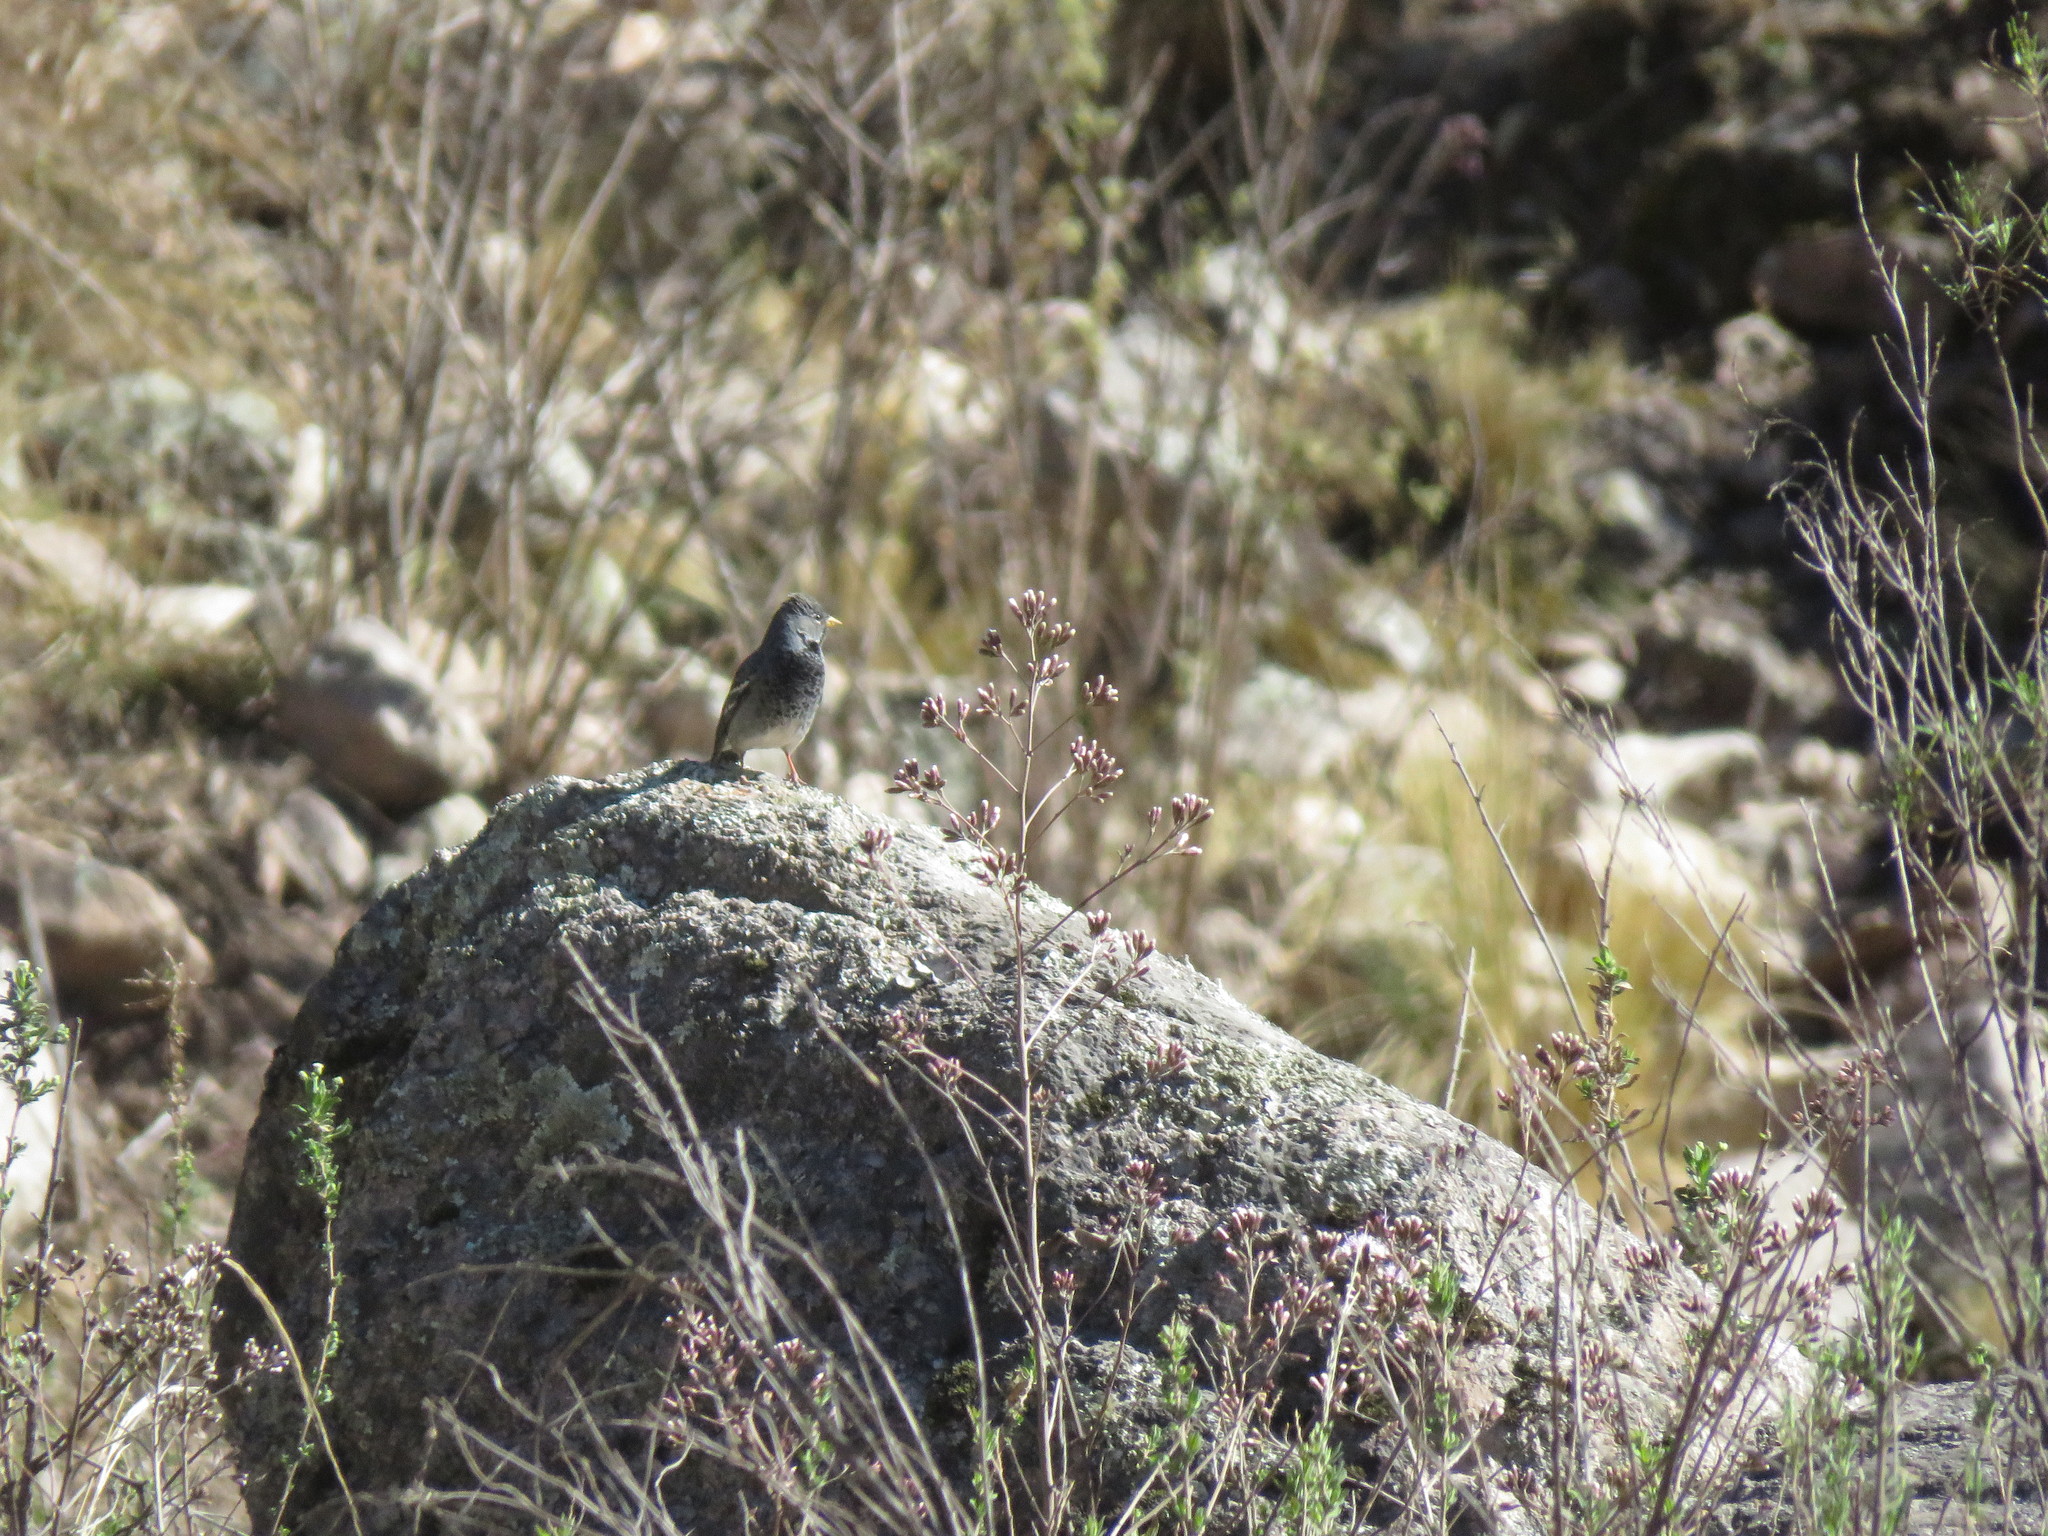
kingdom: Animalia
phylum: Chordata
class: Aves
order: Passeriformes
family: Thraupidae
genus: Rhopospina
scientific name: Rhopospina fruticeti
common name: Mourning sierra finch
